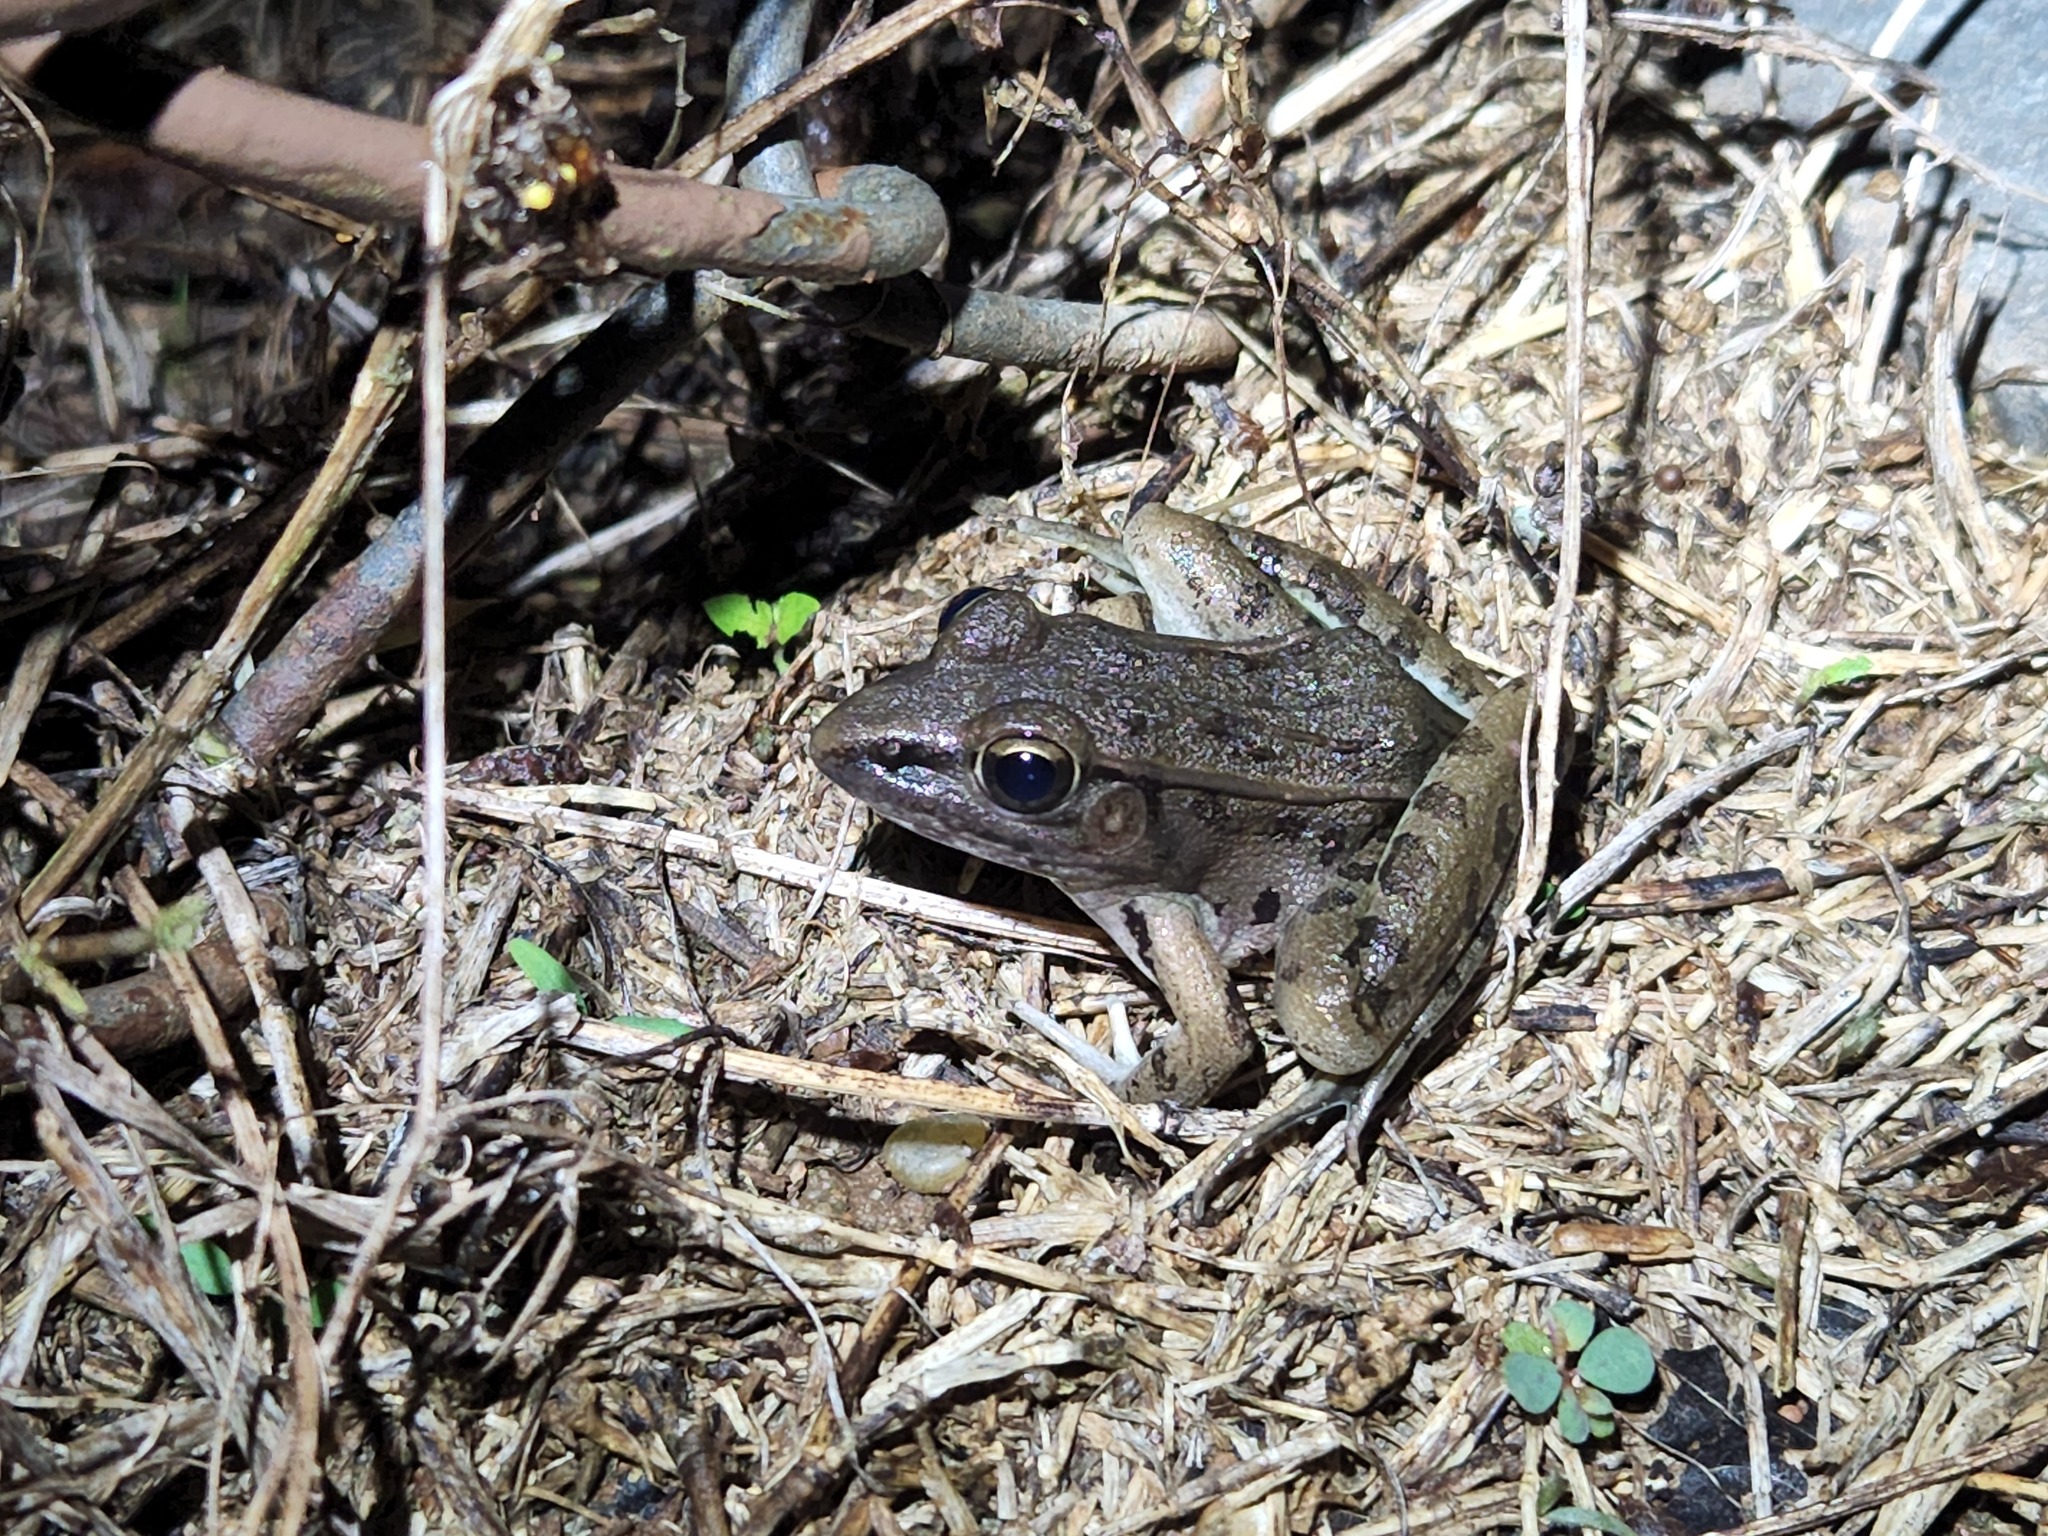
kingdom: Animalia
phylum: Chordata
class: Amphibia
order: Anura
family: Ranidae
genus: Lithobates
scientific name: Lithobates sphenocephalus
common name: Southern leopard frog
